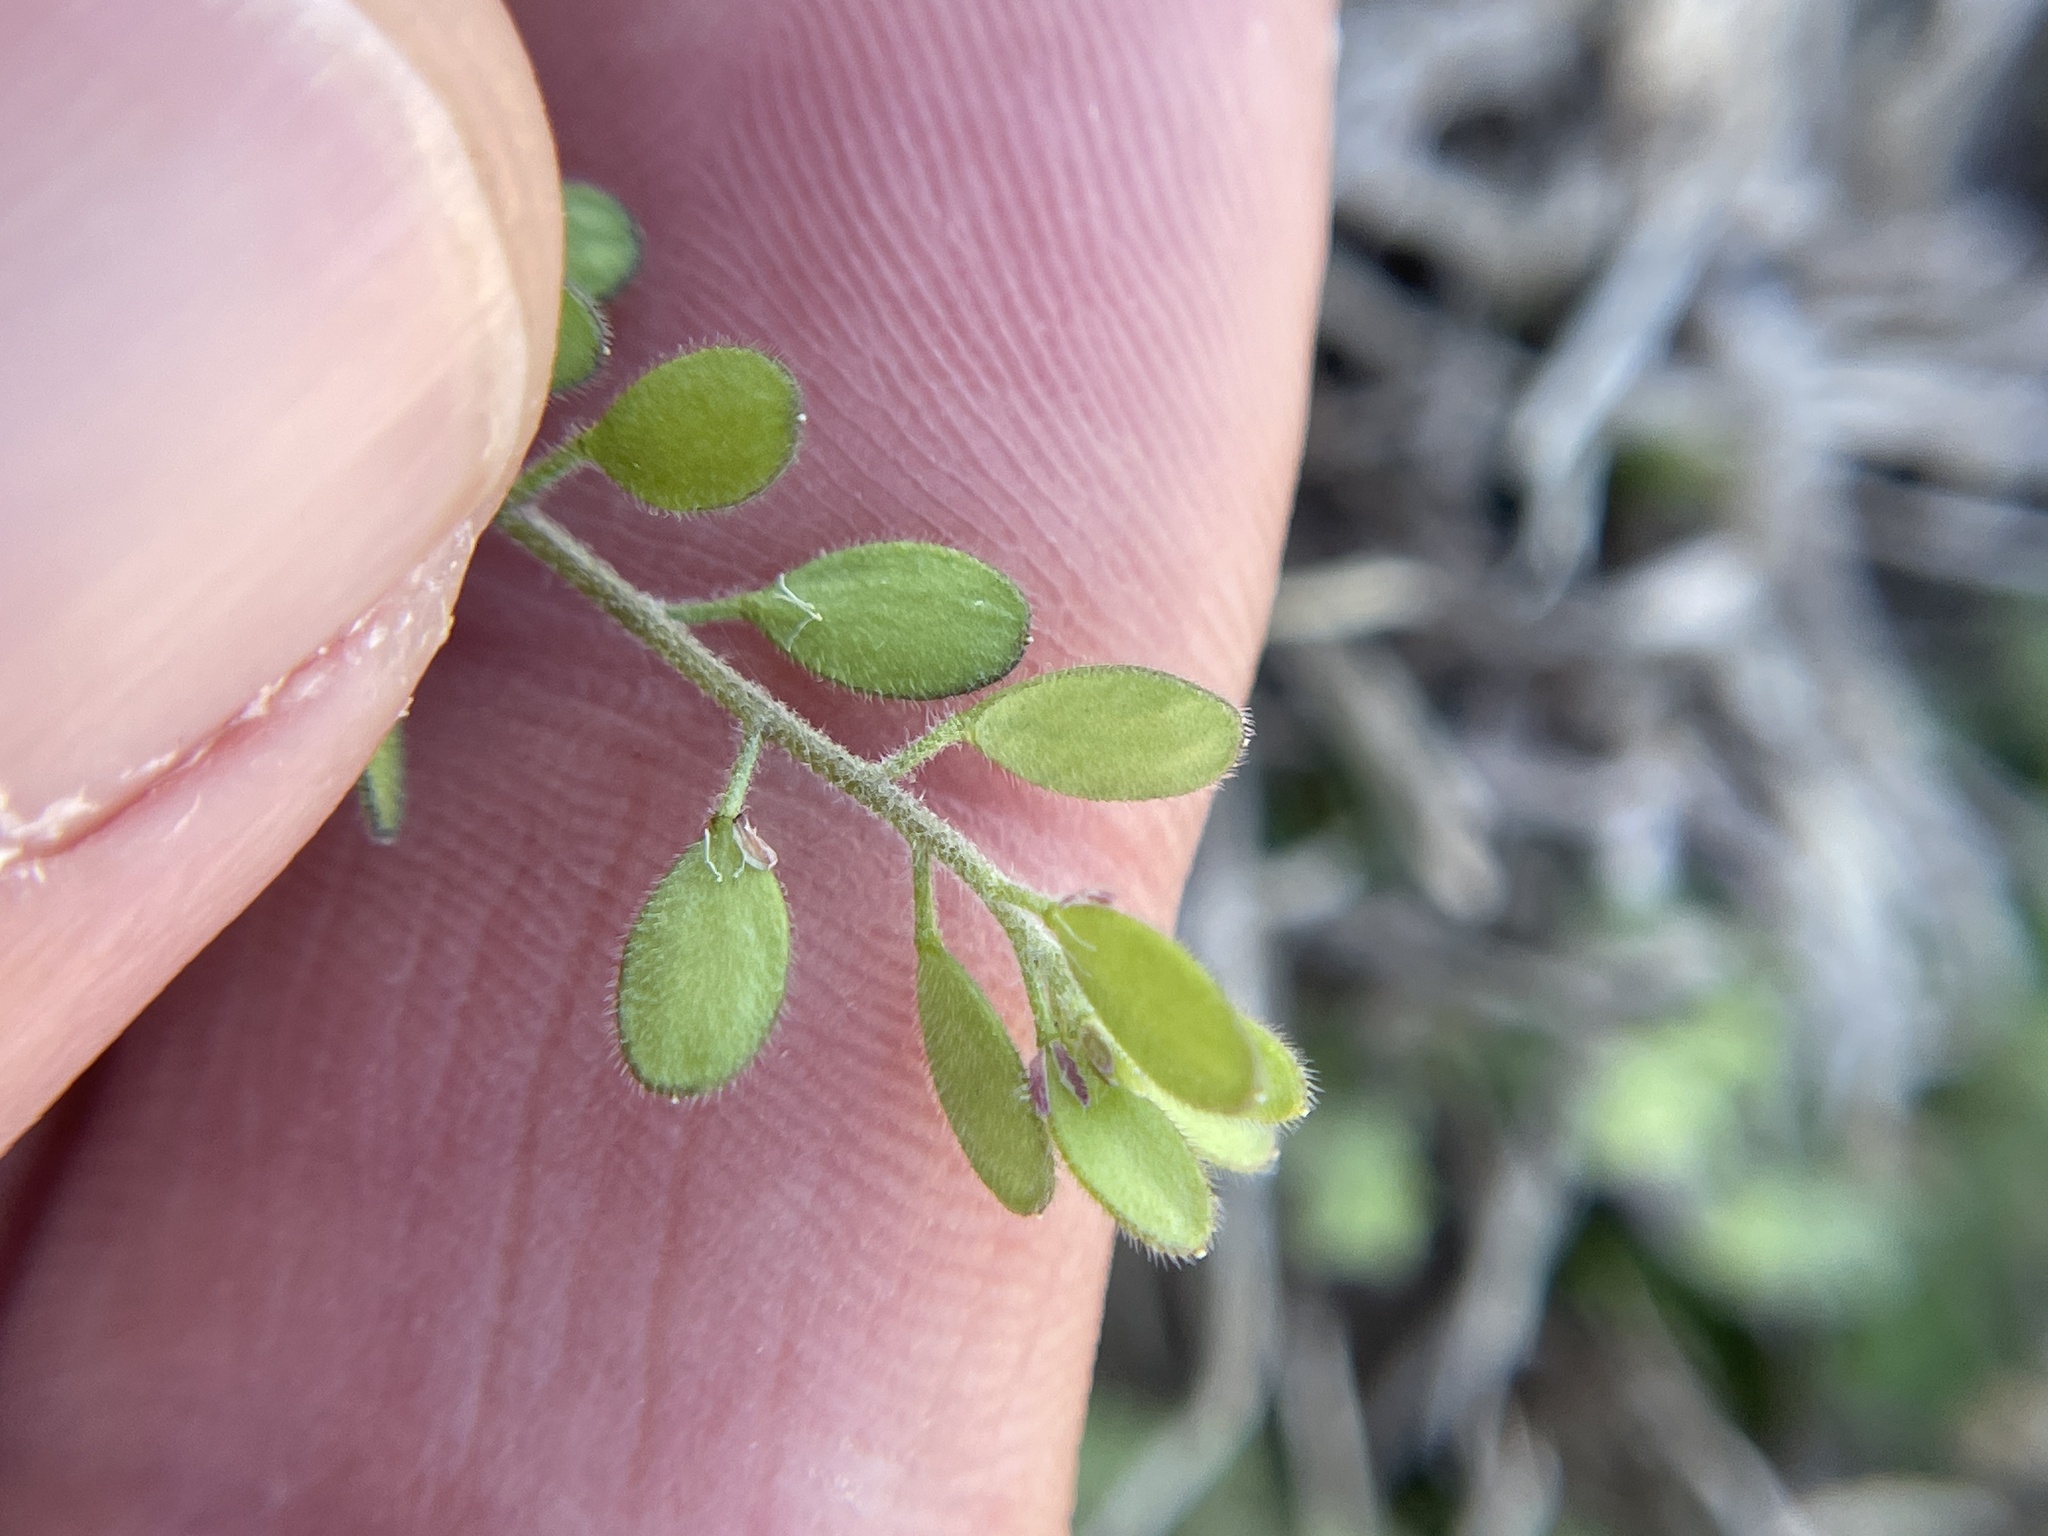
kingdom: Plantae
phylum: Tracheophyta
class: Magnoliopsida
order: Brassicales
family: Brassicaceae
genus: Tomostima
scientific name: Tomostima platycarpa
